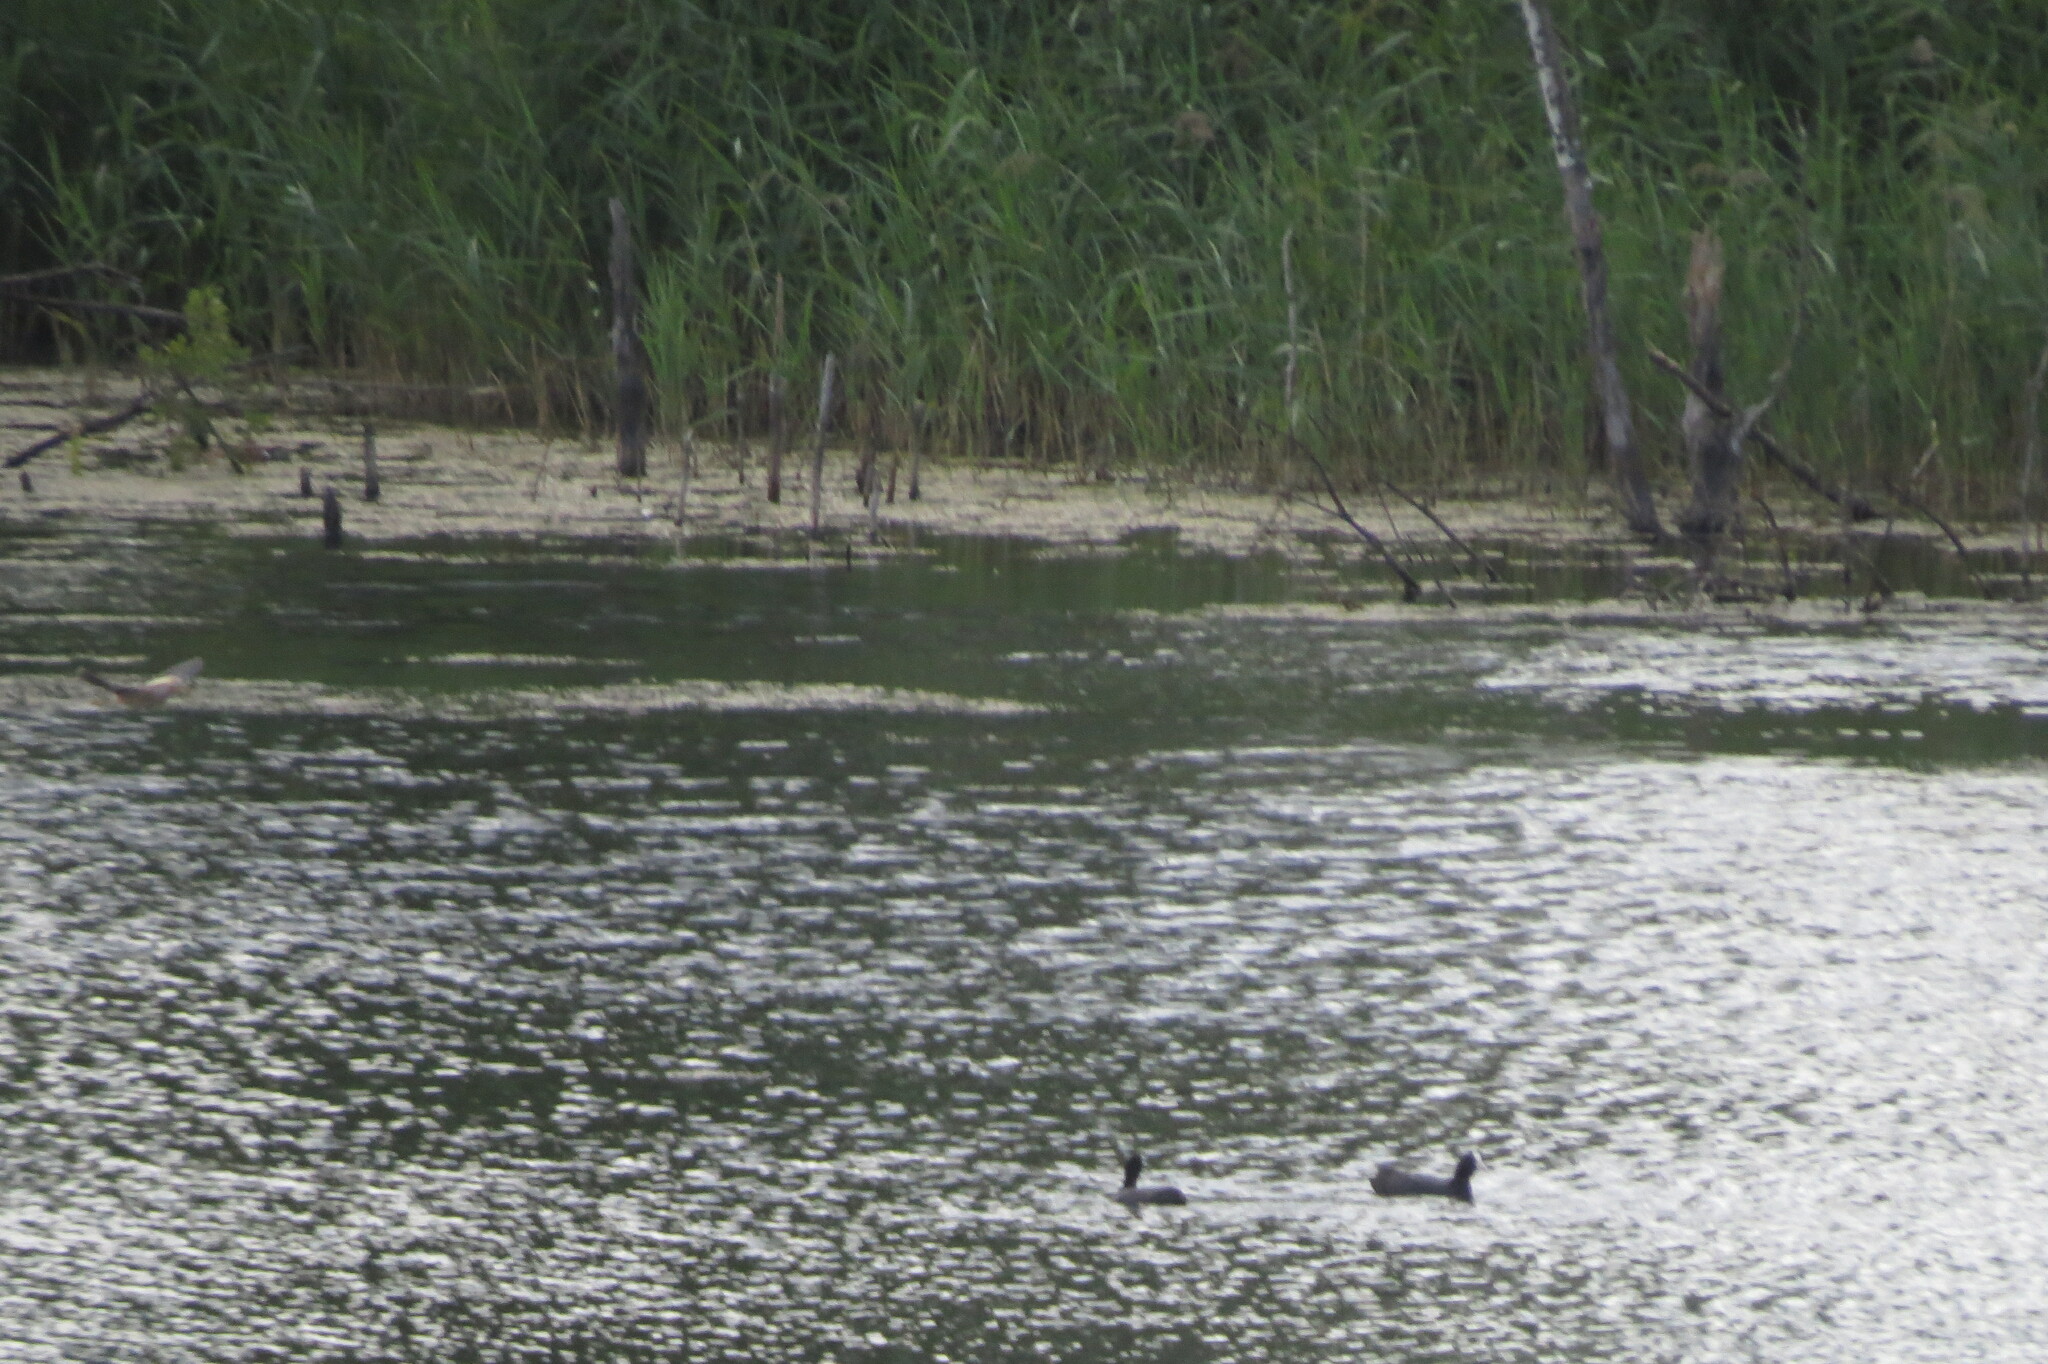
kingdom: Animalia
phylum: Chordata
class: Aves
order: Pelecaniformes
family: Ardeidae
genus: Ixobrychus
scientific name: Ixobrychus minutus
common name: Little bittern
